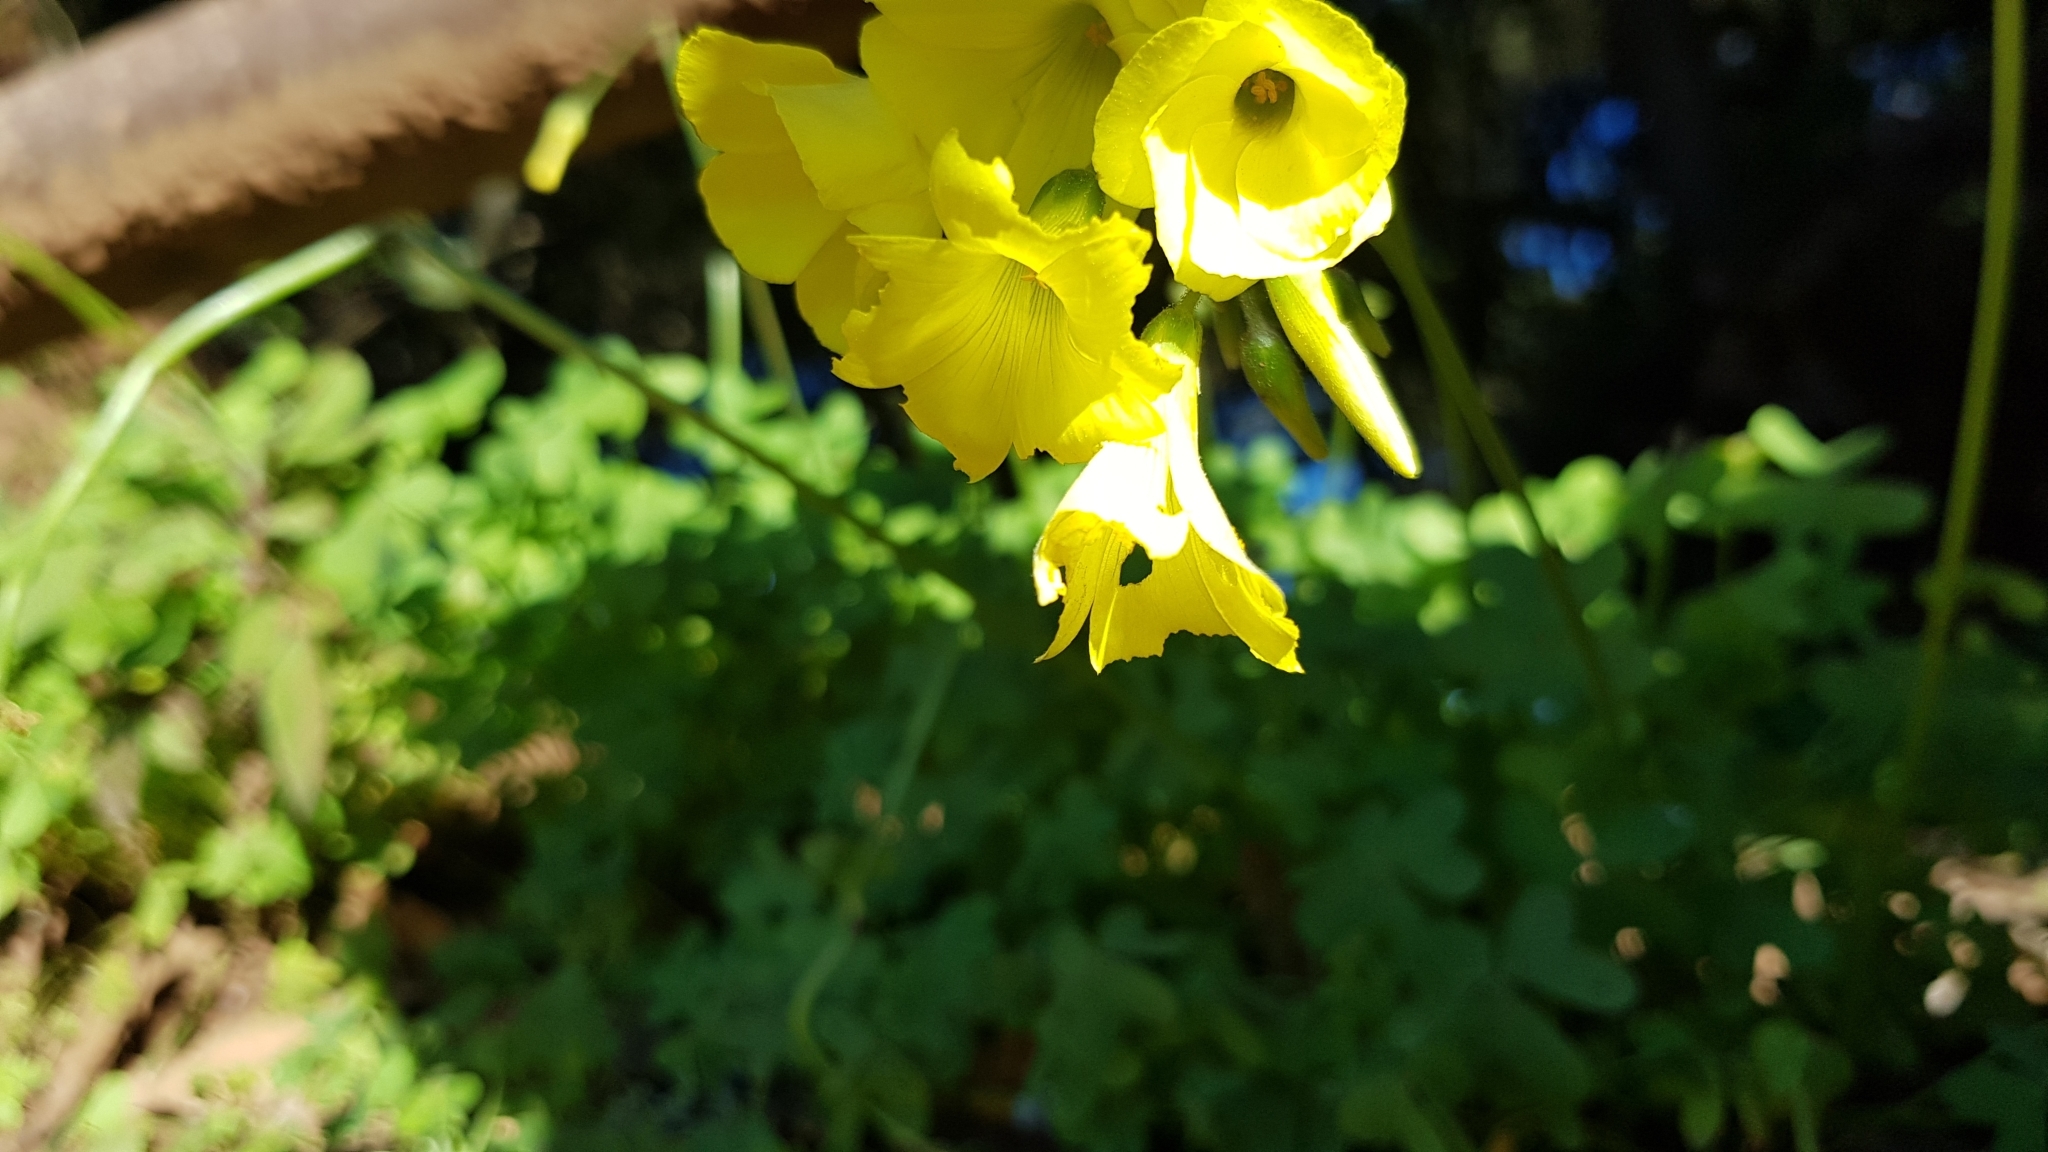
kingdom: Plantae
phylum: Tracheophyta
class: Magnoliopsida
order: Oxalidales
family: Oxalidaceae
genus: Oxalis
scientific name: Oxalis pes-caprae
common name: Bermuda-buttercup
